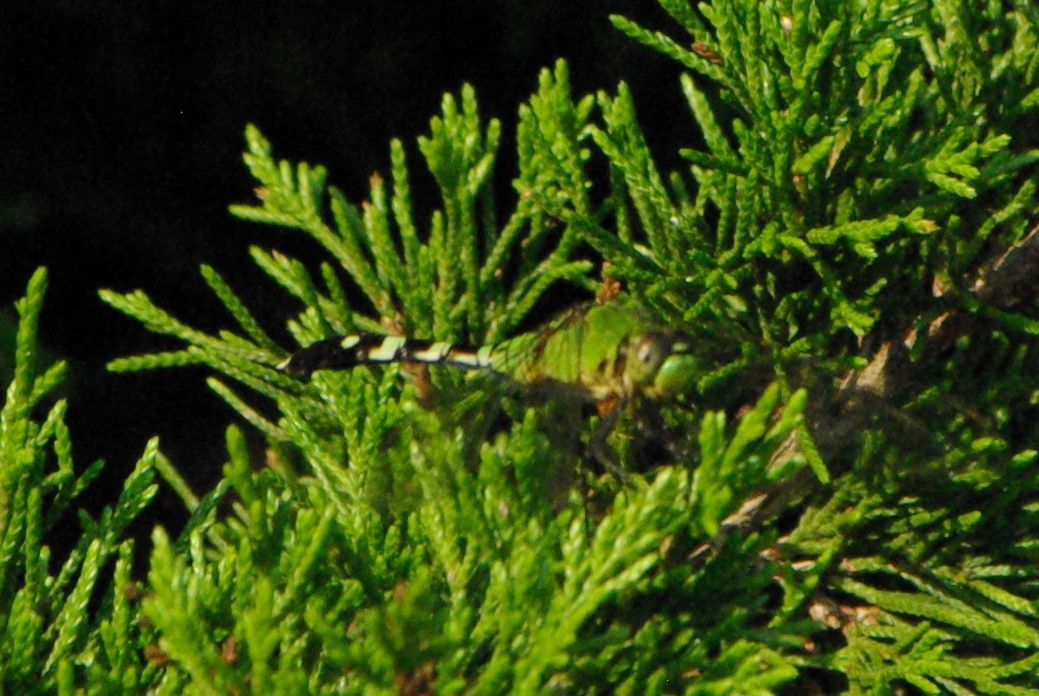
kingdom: Animalia
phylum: Arthropoda
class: Insecta
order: Odonata
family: Libellulidae
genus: Erythemis
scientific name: Erythemis simplicicollis
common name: Eastern pondhawk
